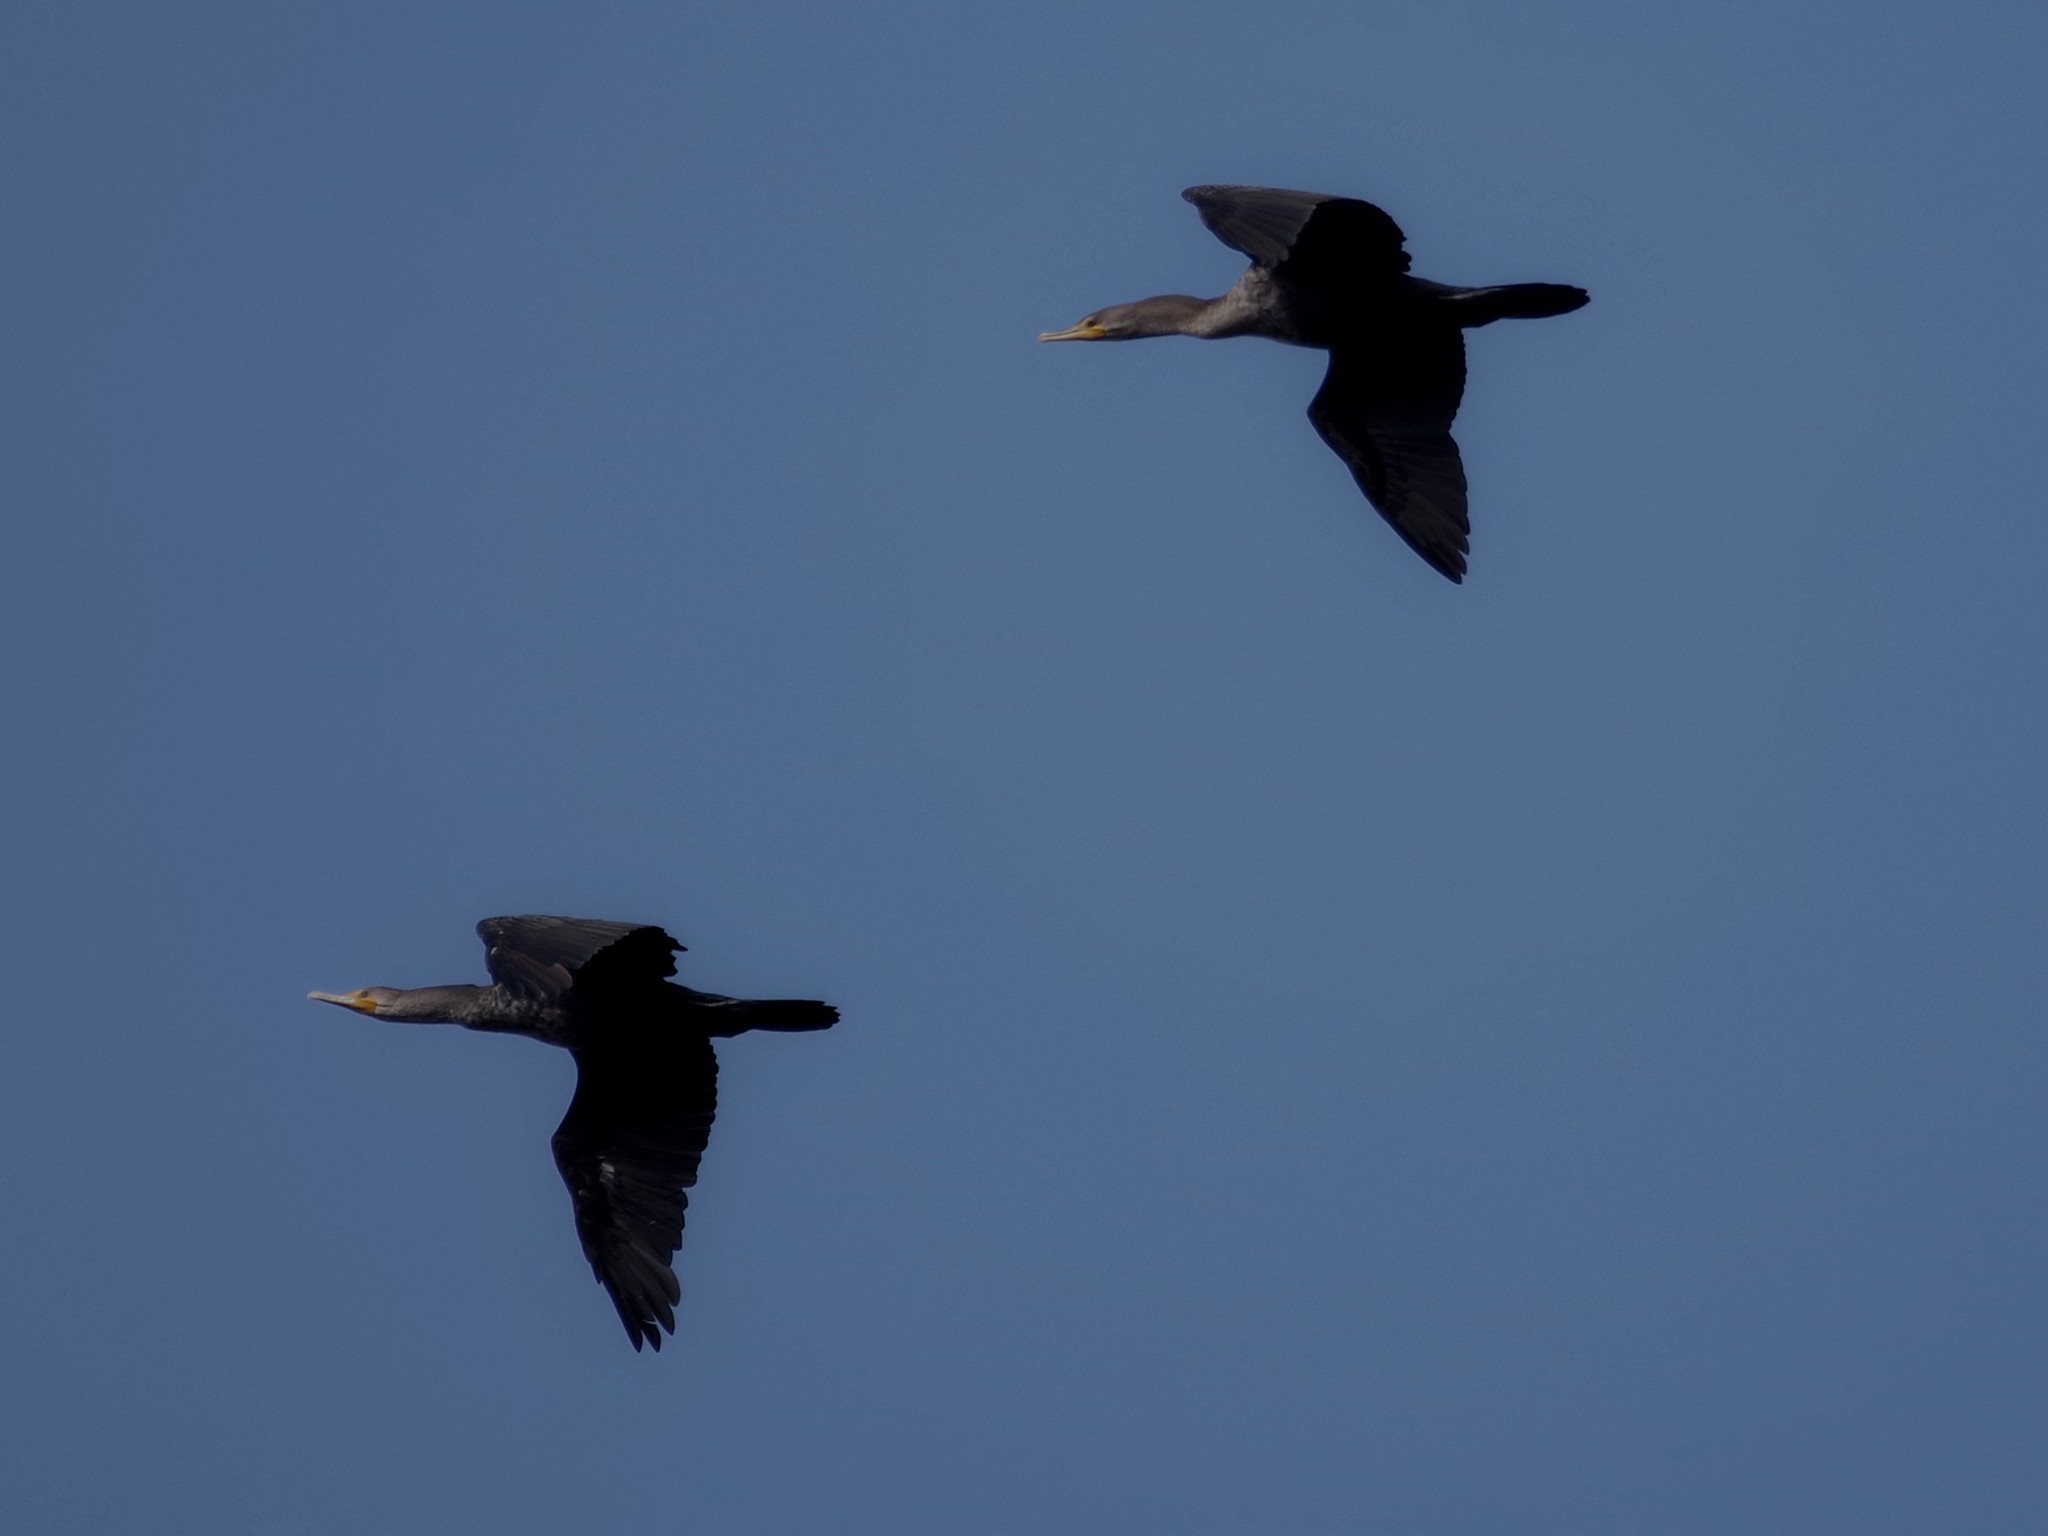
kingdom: Animalia
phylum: Chordata
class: Aves
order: Suliformes
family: Phalacrocoracidae
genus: Phalacrocorax
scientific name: Phalacrocorax auritus
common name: Double-crested cormorant
